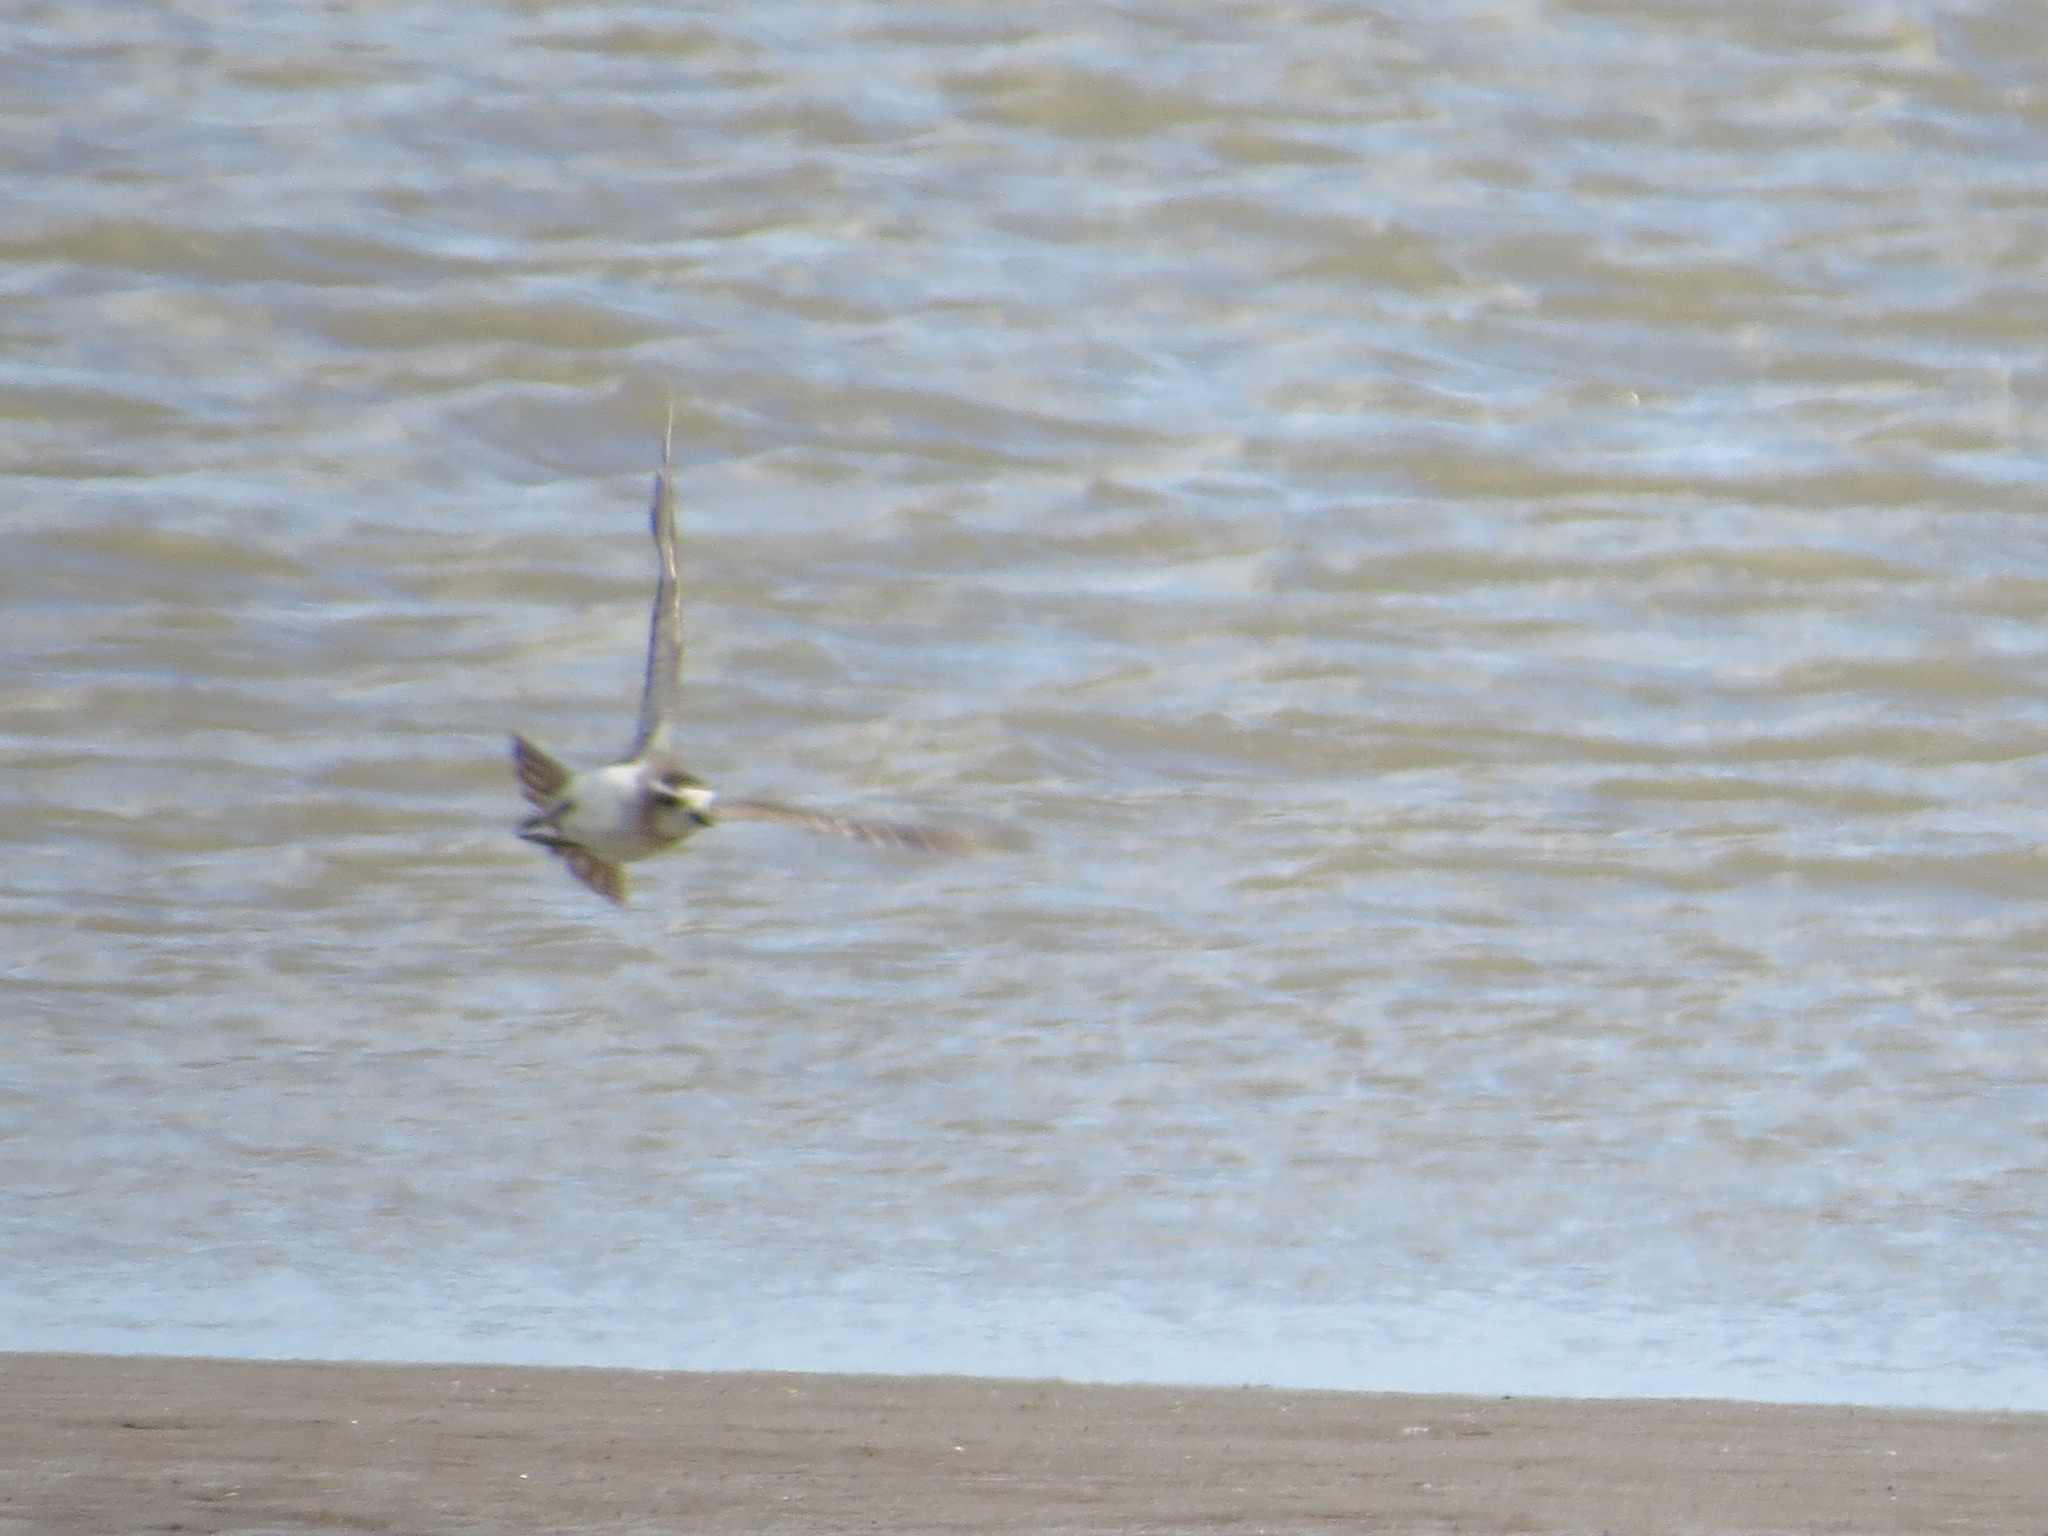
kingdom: Animalia
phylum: Chordata
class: Aves
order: Charadriiformes
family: Charadriidae
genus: Anarhynchus
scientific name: Anarhynchus
